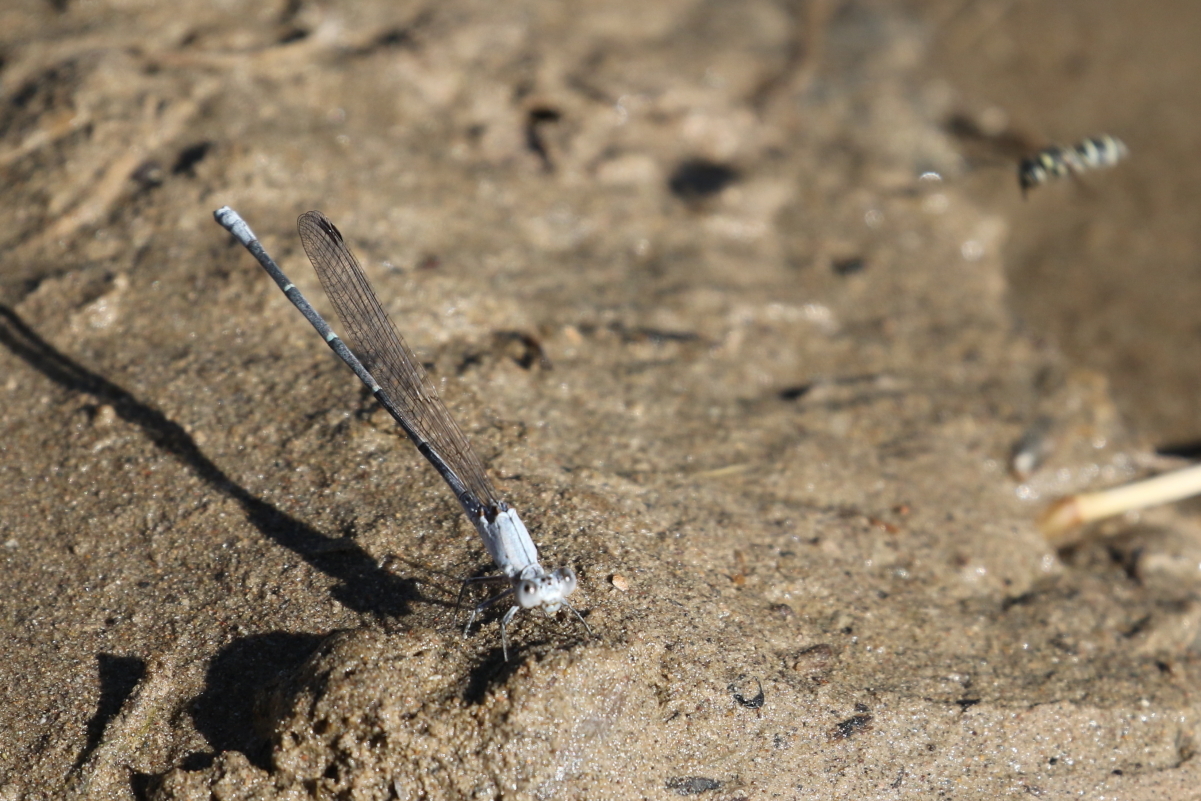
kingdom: Animalia
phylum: Arthropoda
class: Insecta
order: Odonata
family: Coenagrionidae
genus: Argia
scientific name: Argia moesta
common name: Powdered dancer
